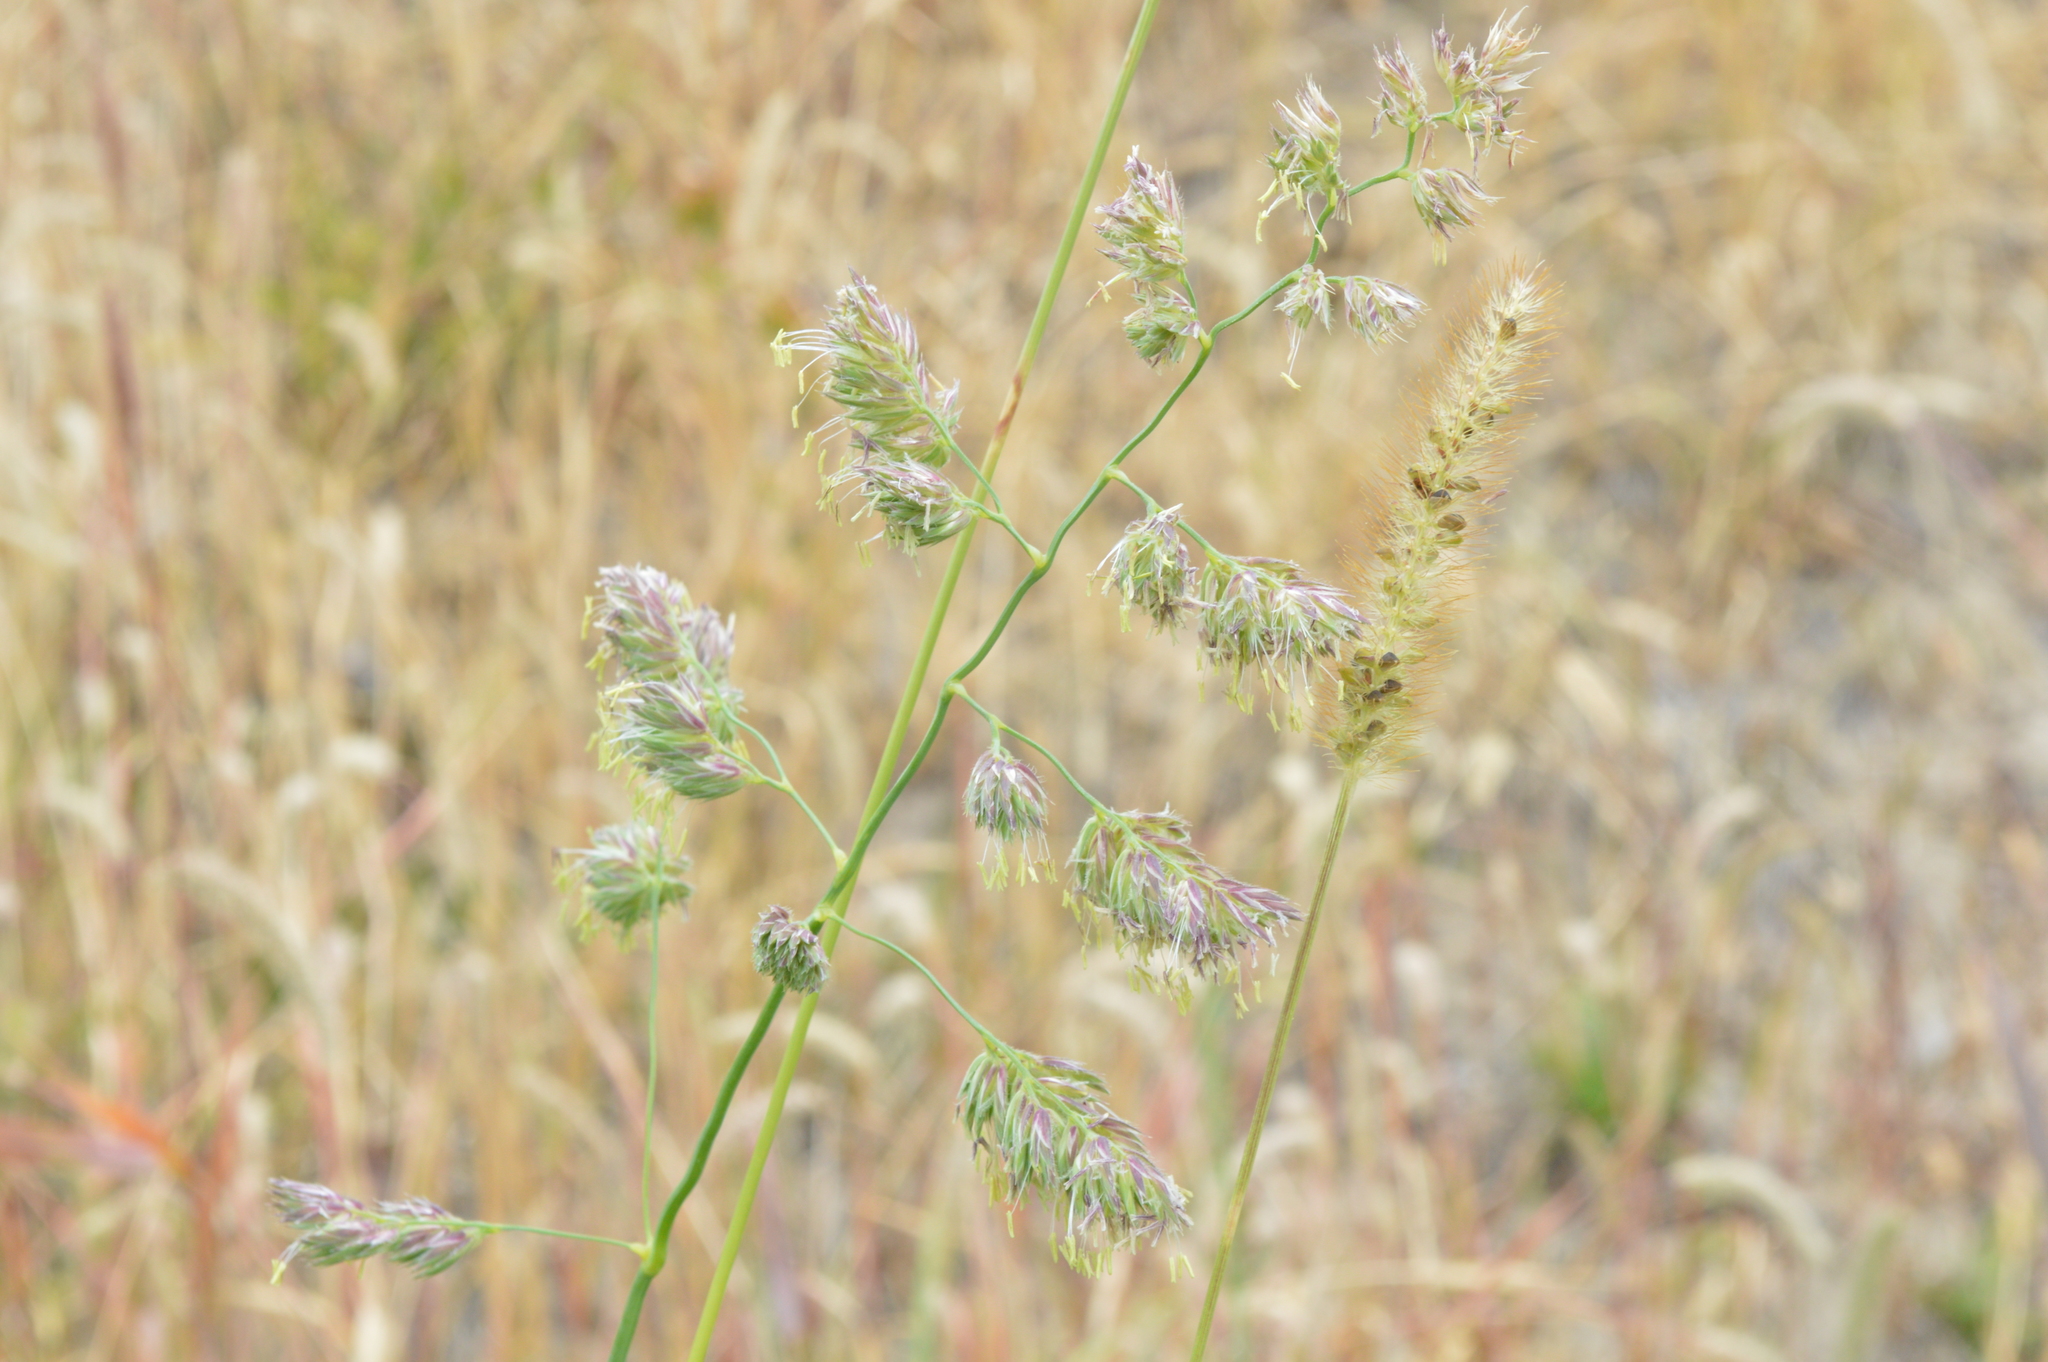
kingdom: Plantae
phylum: Tracheophyta
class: Liliopsida
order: Poales
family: Poaceae
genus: Dactylis
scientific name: Dactylis glomerata
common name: Orchardgrass
